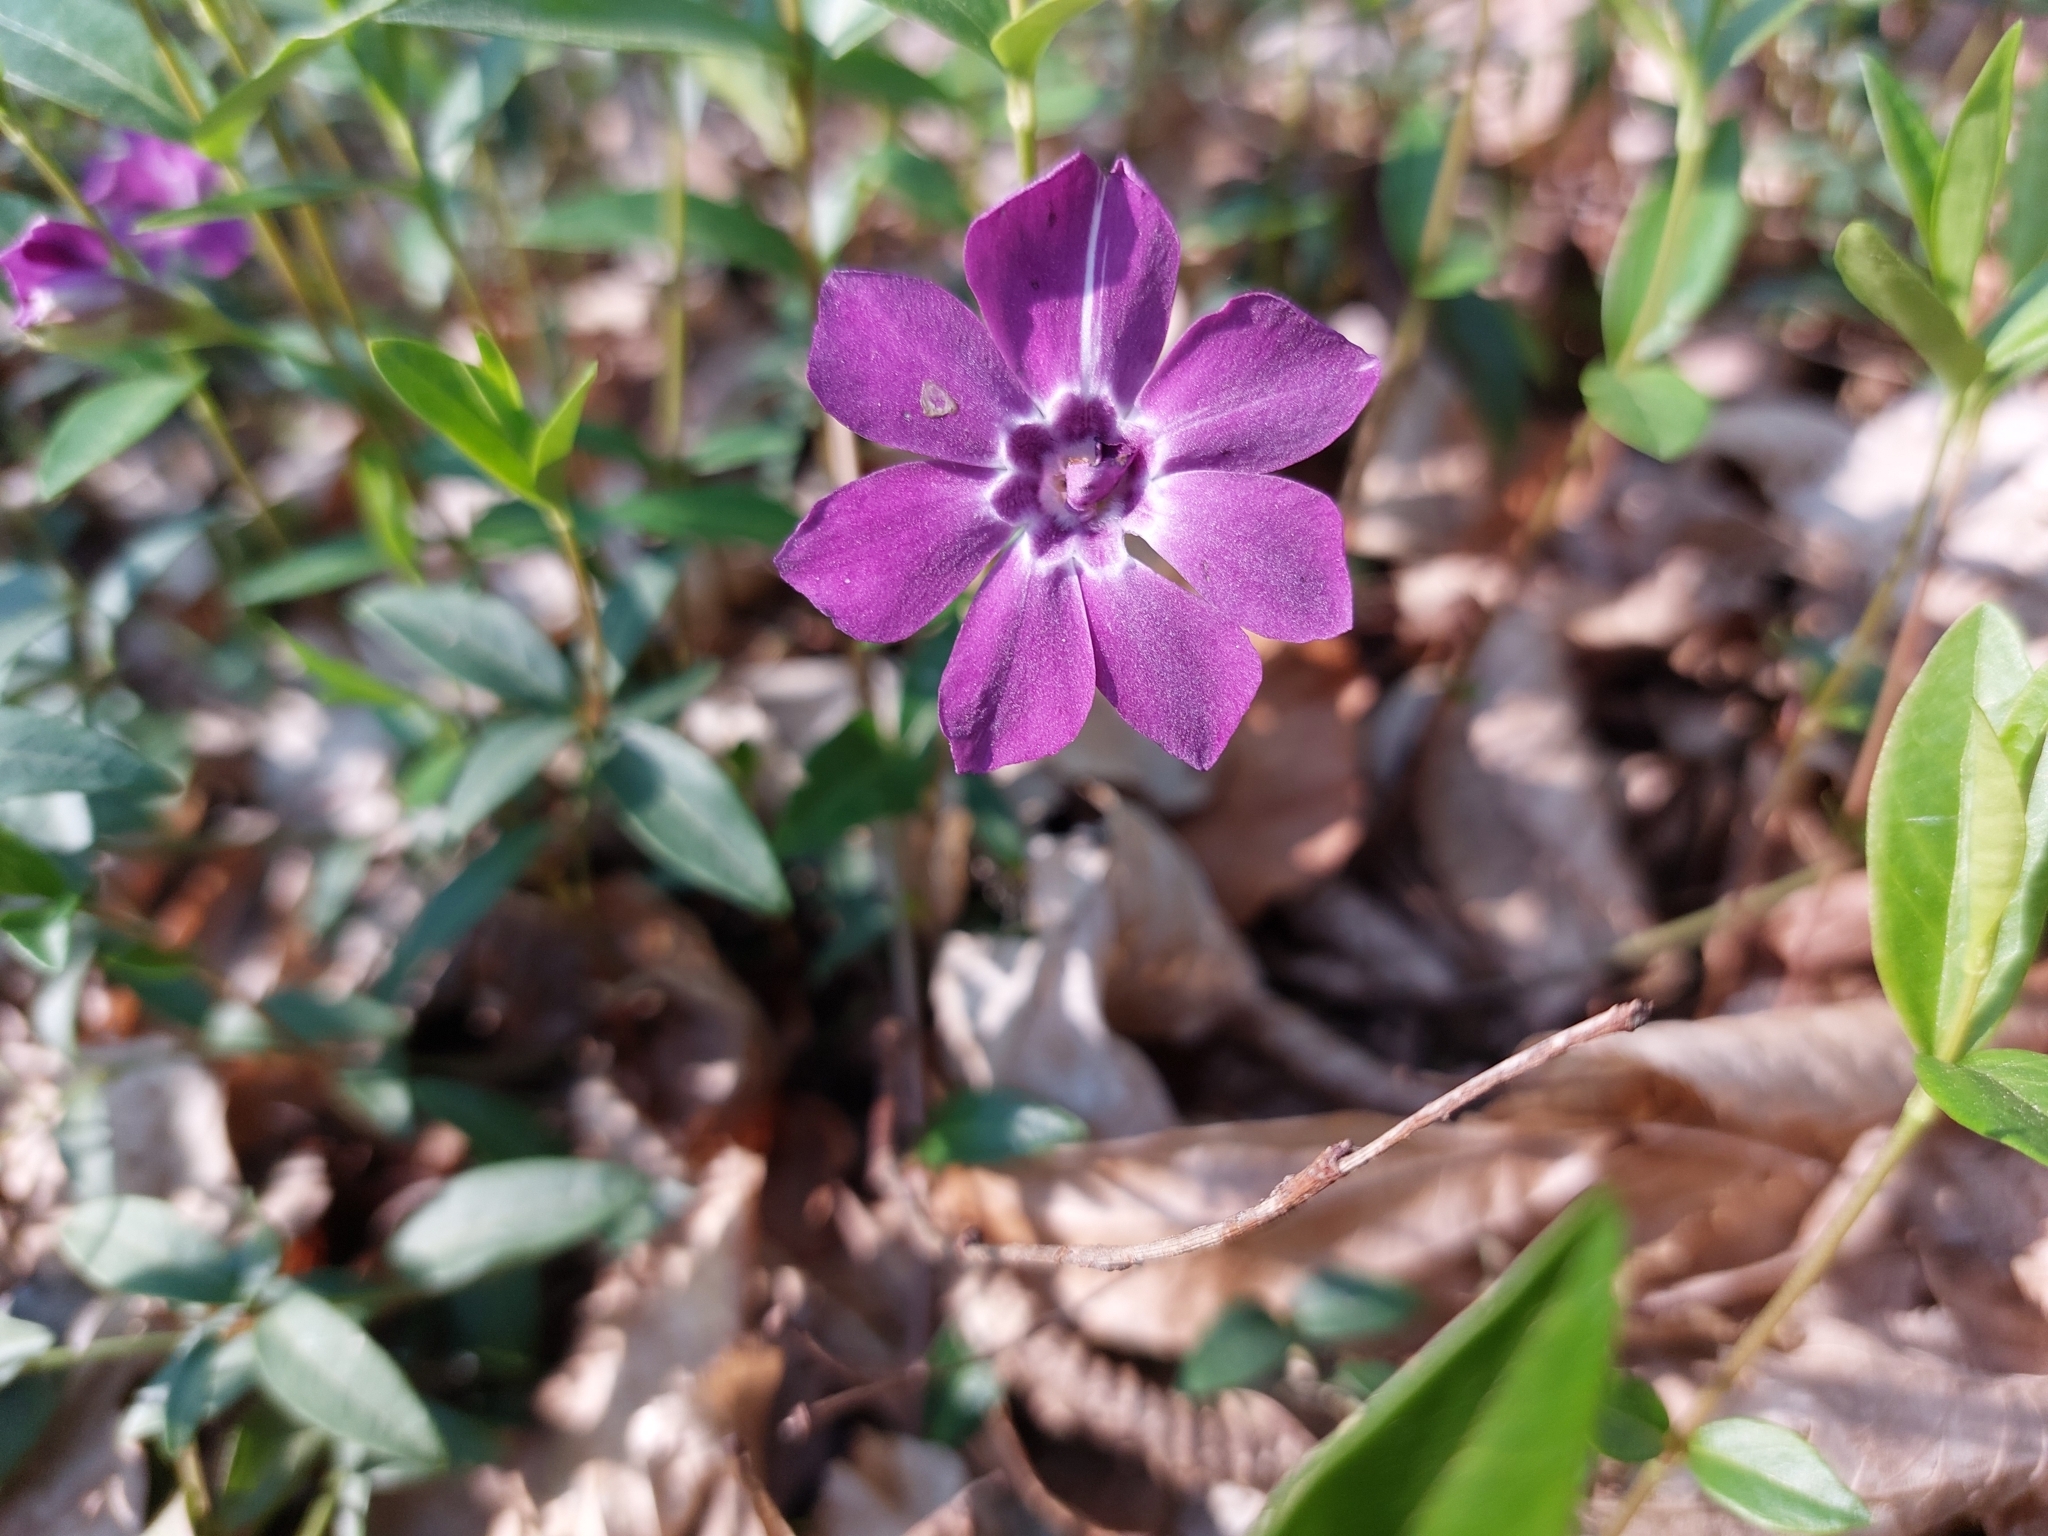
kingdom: Plantae
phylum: Tracheophyta
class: Magnoliopsida
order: Gentianales
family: Apocynaceae
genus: Vinca
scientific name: Vinca minor
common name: Lesser periwinkle
